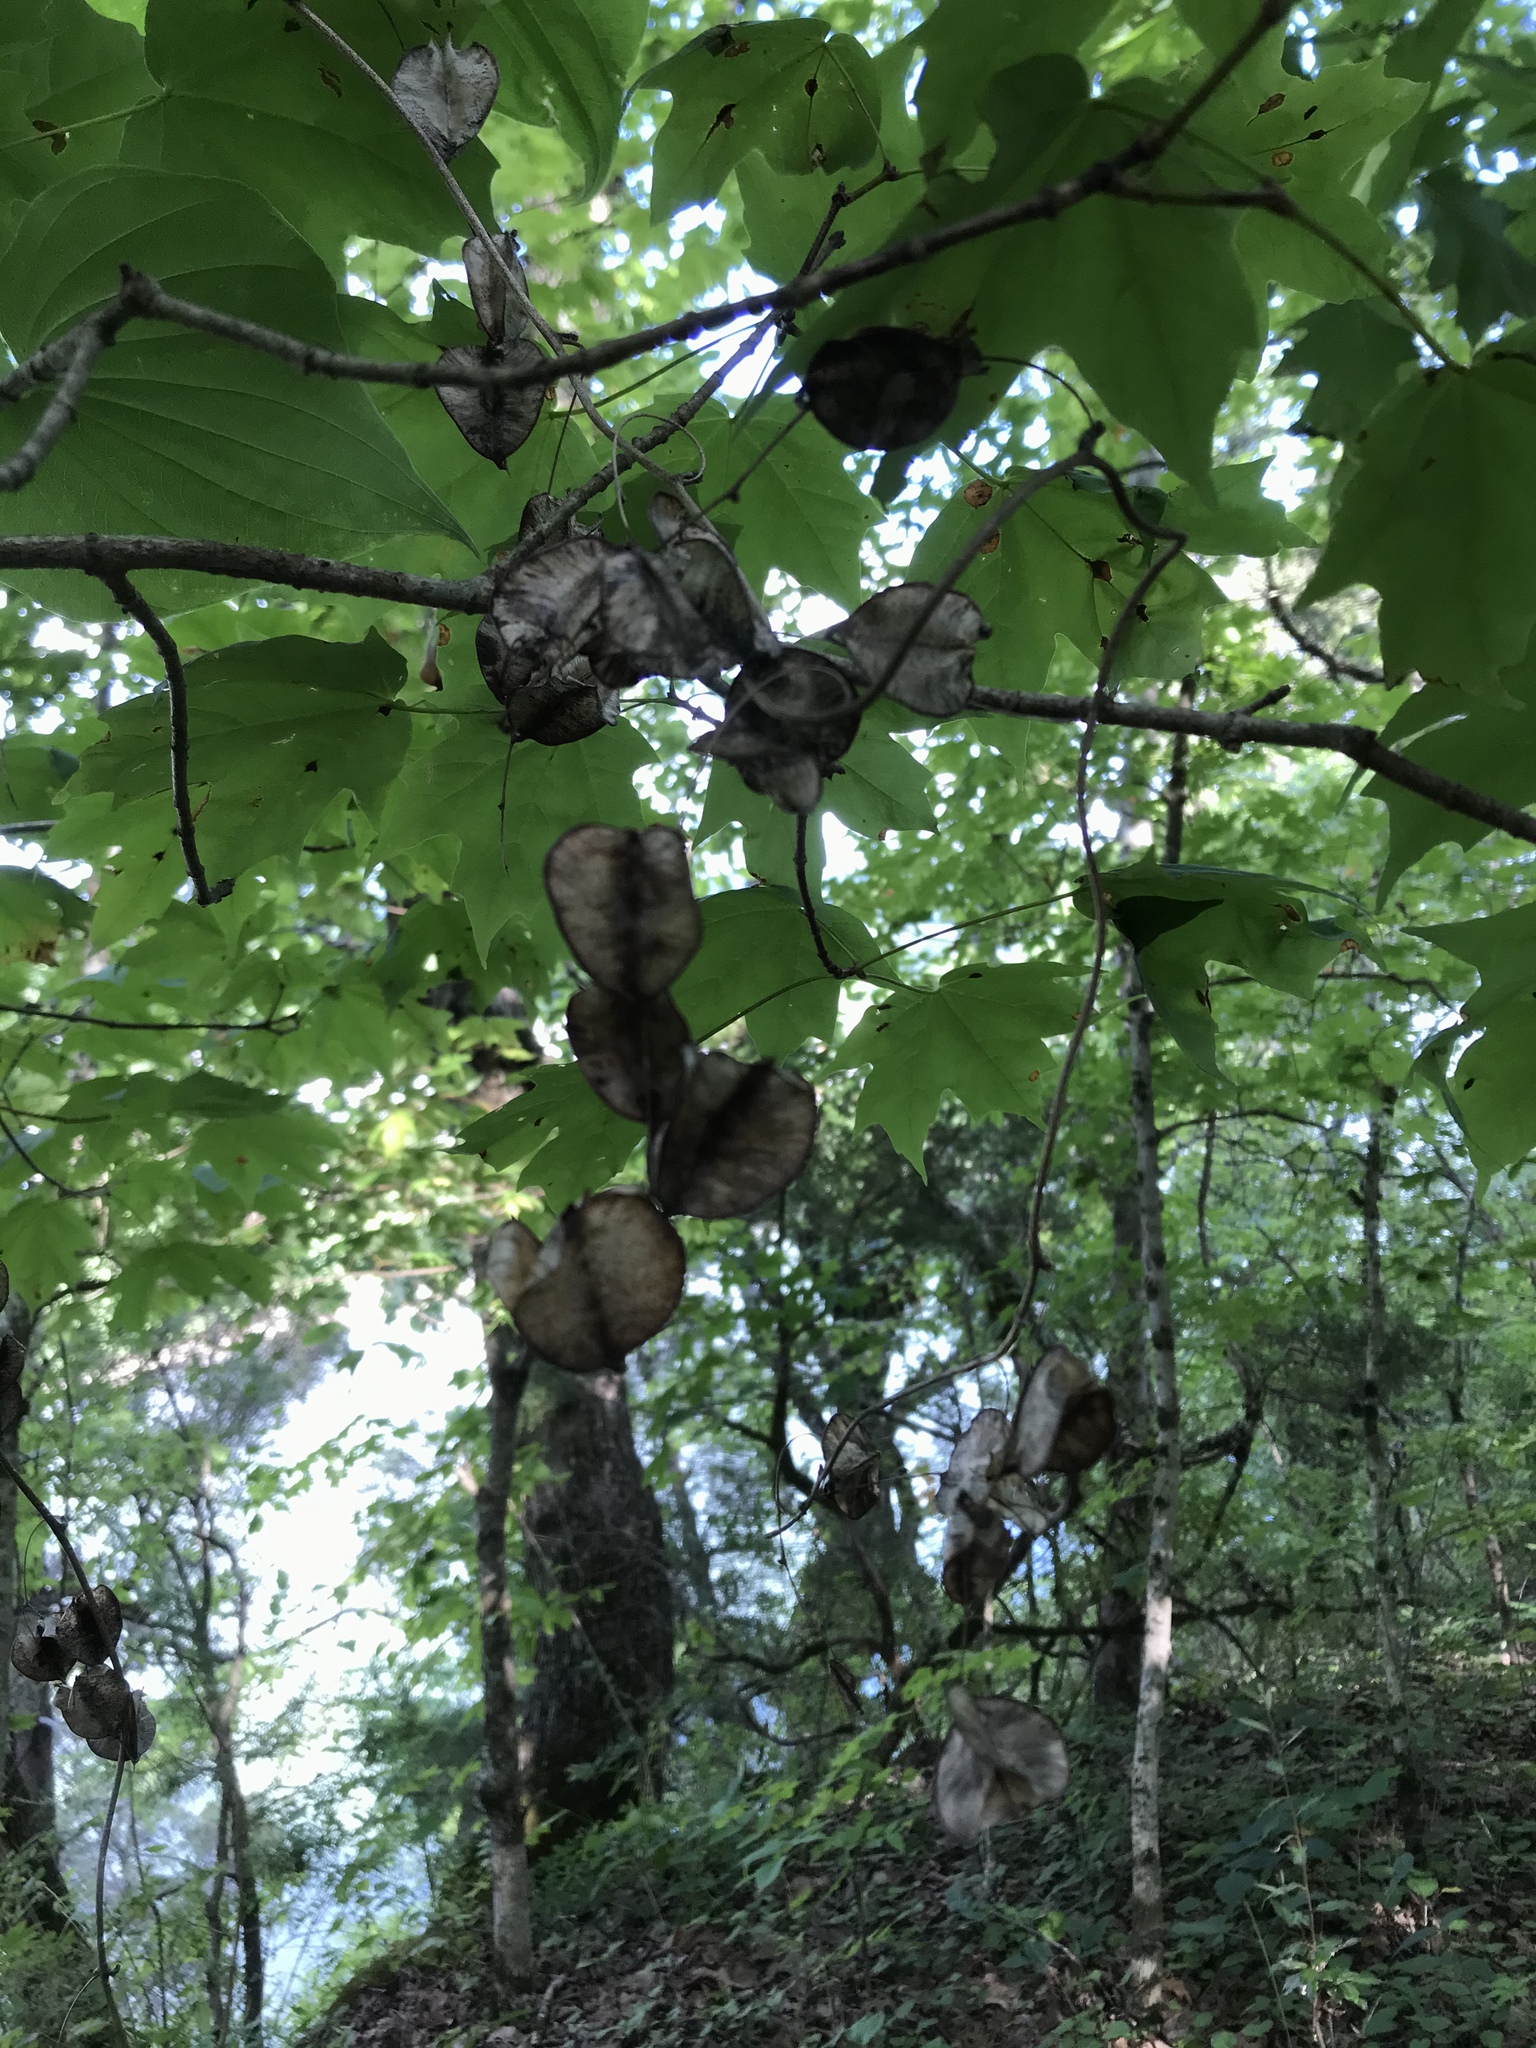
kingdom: Plantae
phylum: Tracheophyta
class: Liliopsida
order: Dioscoreales
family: Dioscoreaceae
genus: Dioscorea
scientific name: Dioscorea villosa
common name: Wild yam
